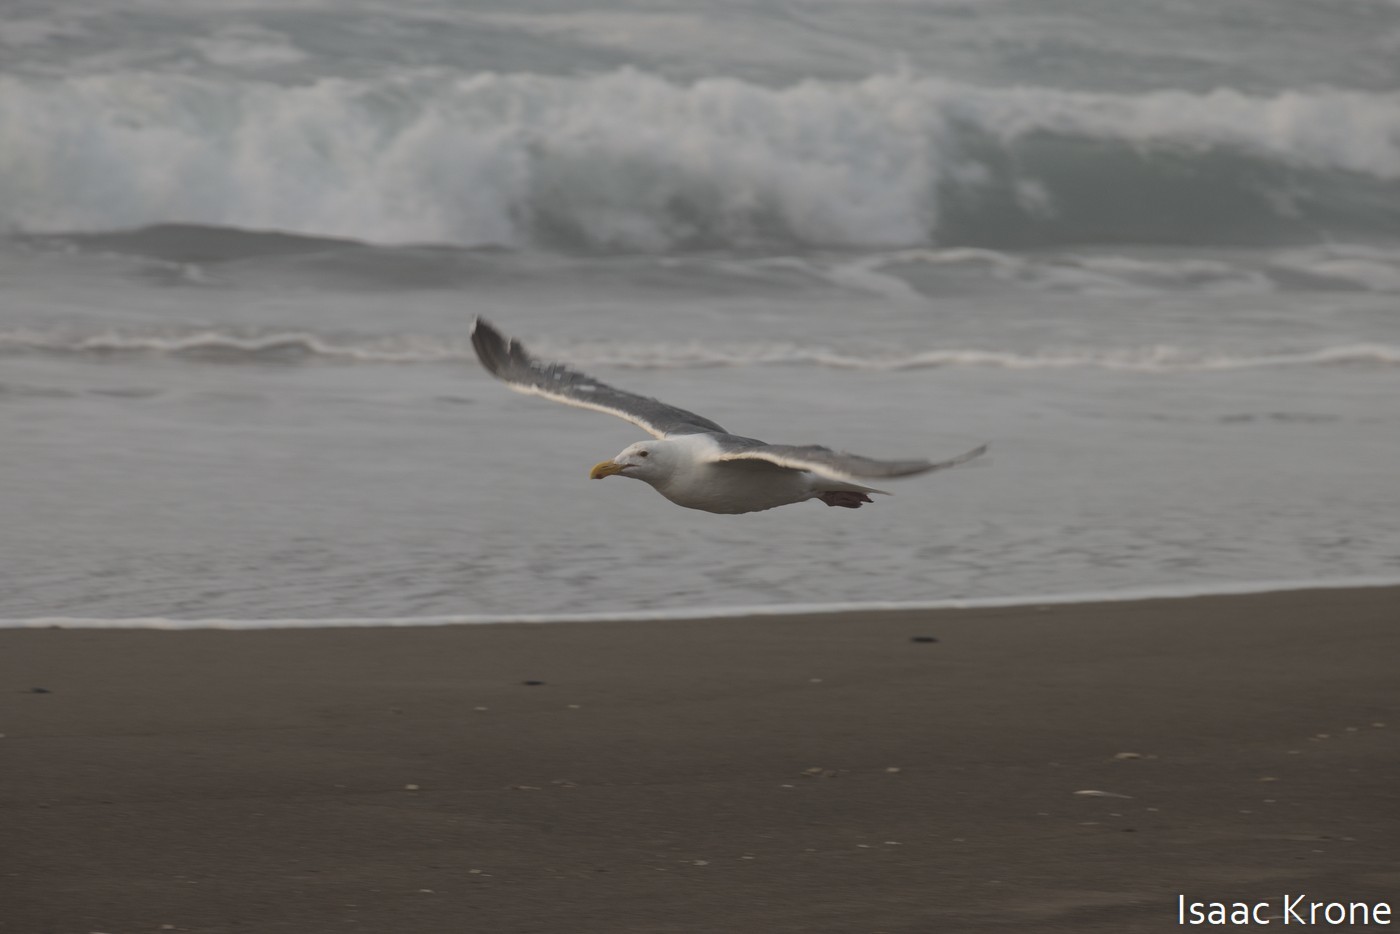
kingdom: Animalia
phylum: Chordata
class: Aves
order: Charadriiformes
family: Laridae
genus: Larus
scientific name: Larus occidentalis
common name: Western gull
